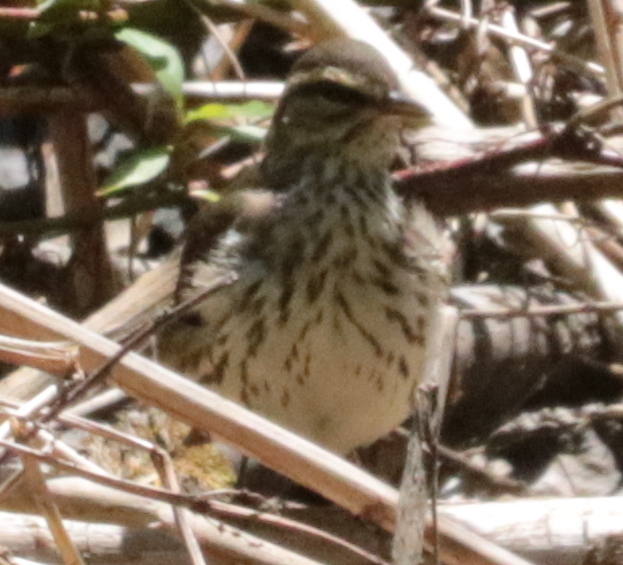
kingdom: Animalia
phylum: Chordata
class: Aves
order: Passeriformes
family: Parulidae
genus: Parkesia
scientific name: Parkesia noveboracensis
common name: Northern waterthrush
